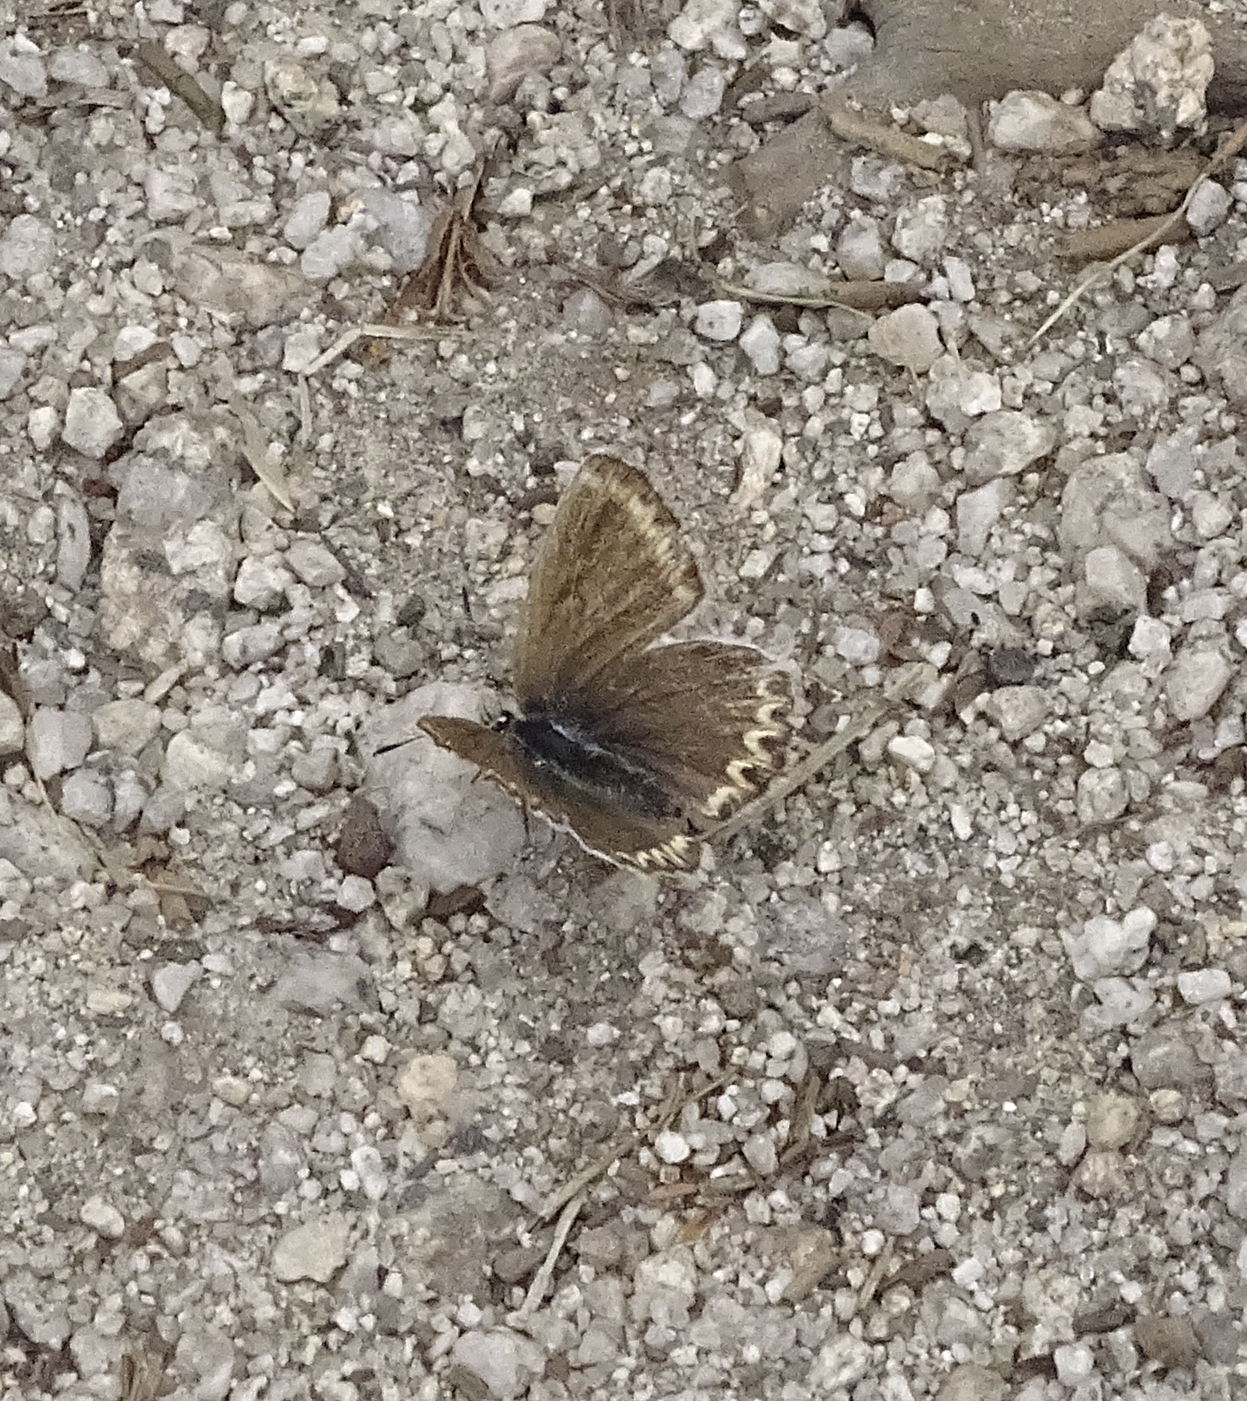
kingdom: Animalia
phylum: Arthropoda
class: Insecta
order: Lepidoptera
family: Lycaenidae
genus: Lycaeides
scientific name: Lycaeides anna
